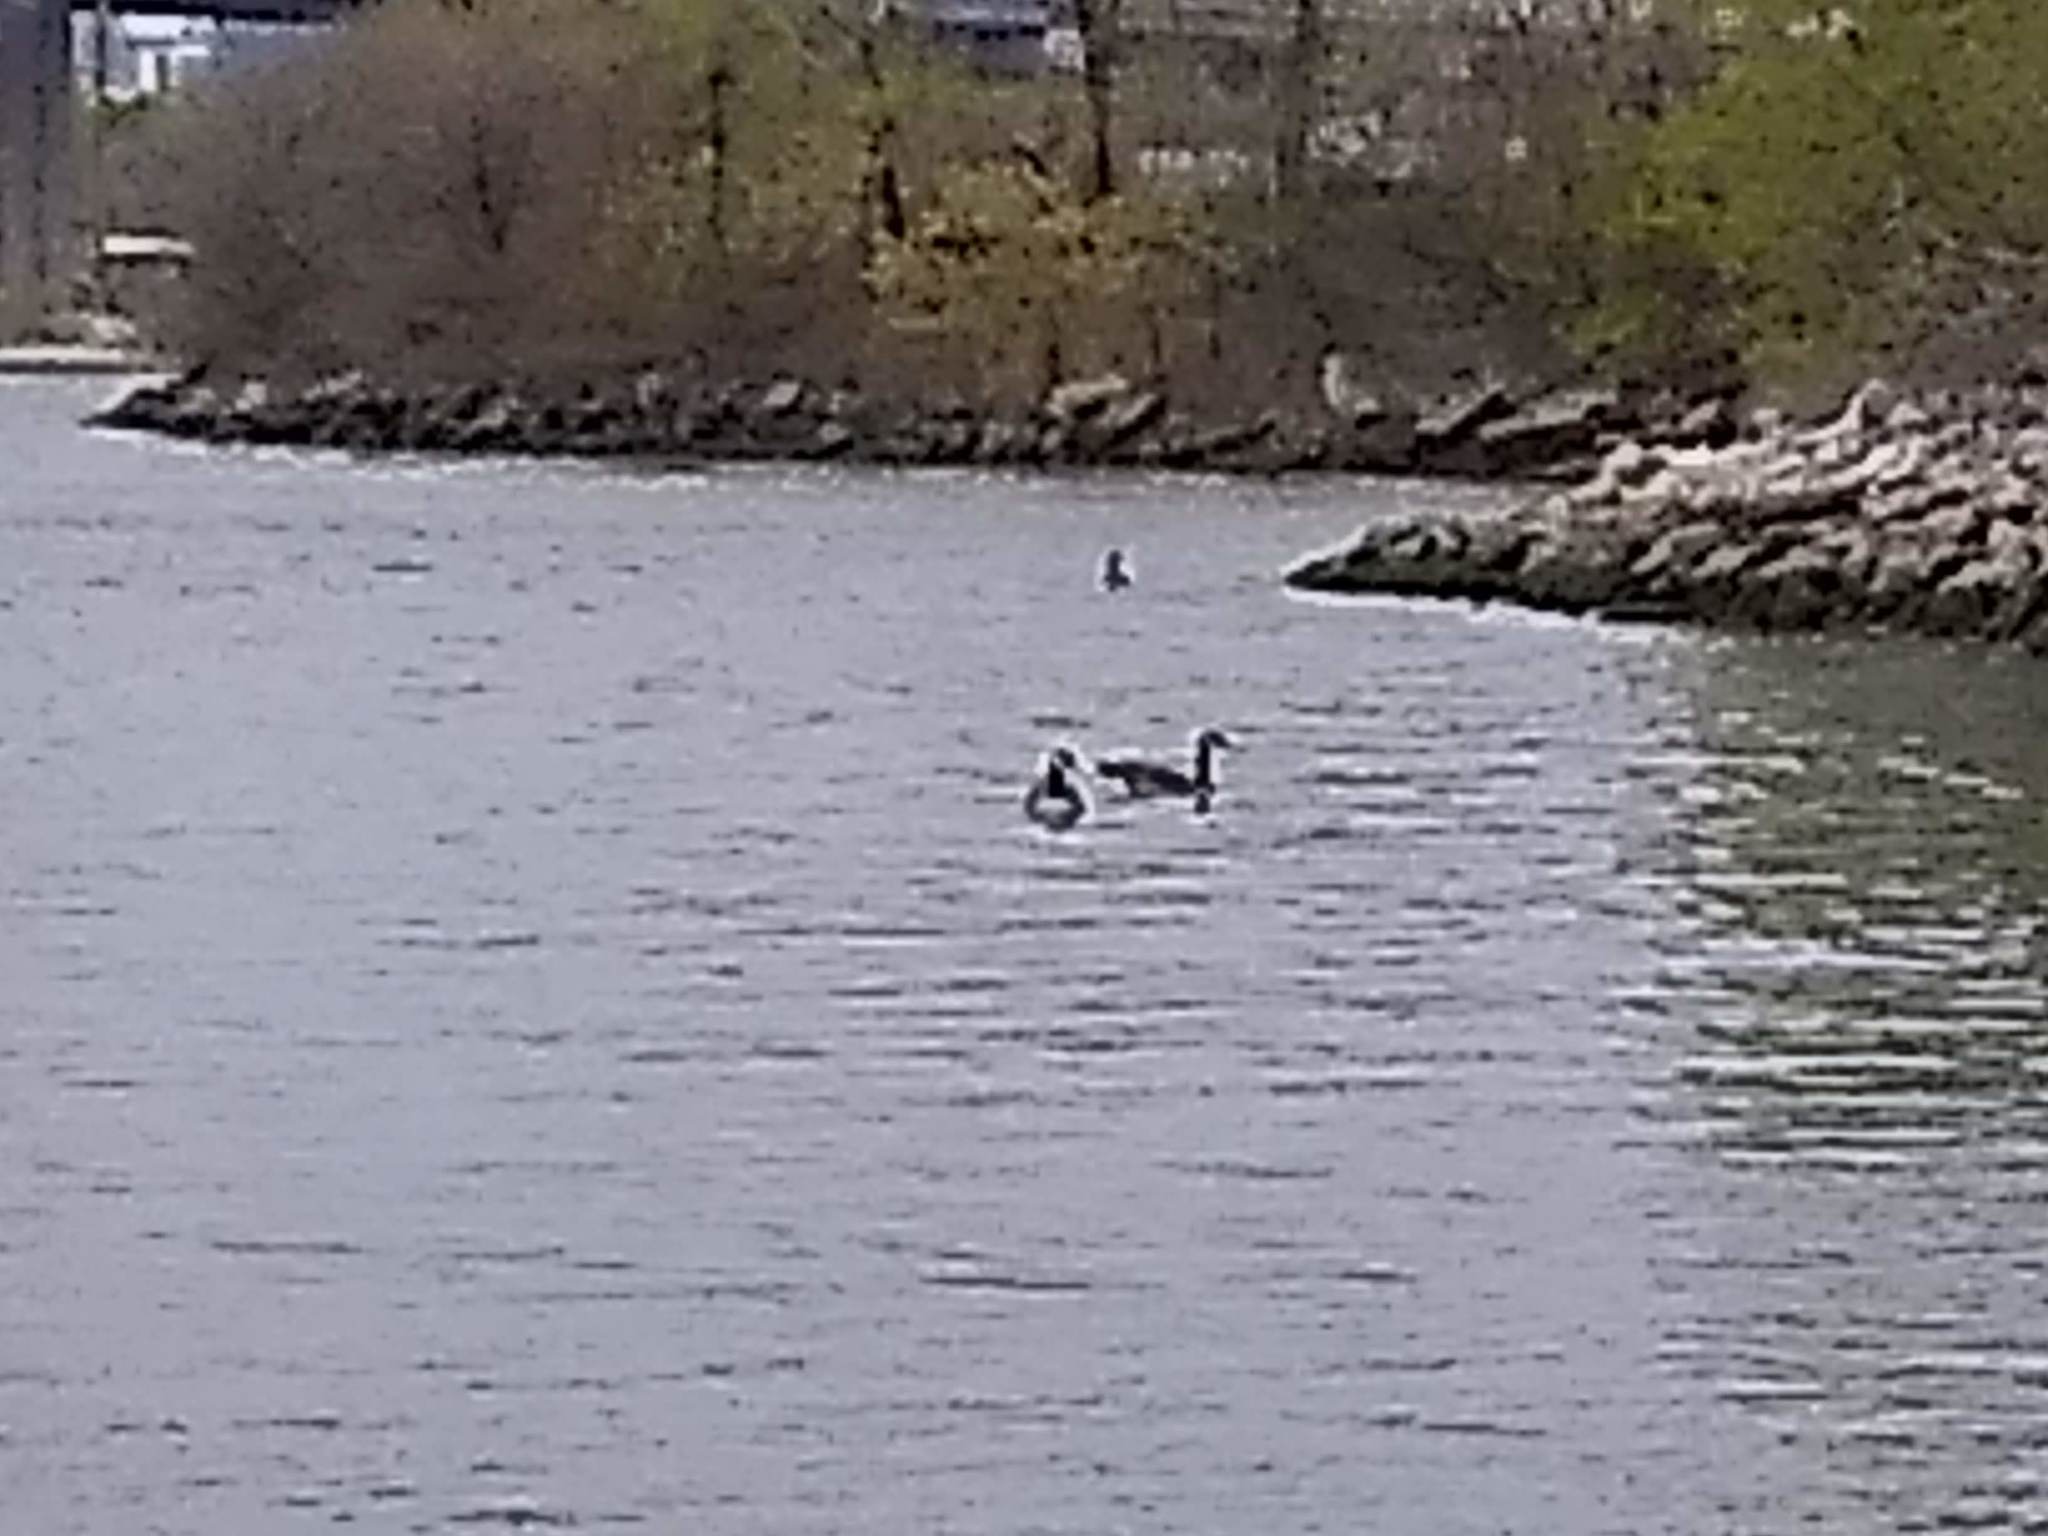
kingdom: Animalia
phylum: Chordata
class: Aves
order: Anseriformes
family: Anatidae
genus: Branta
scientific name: Branta canadensis
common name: Canada goose
